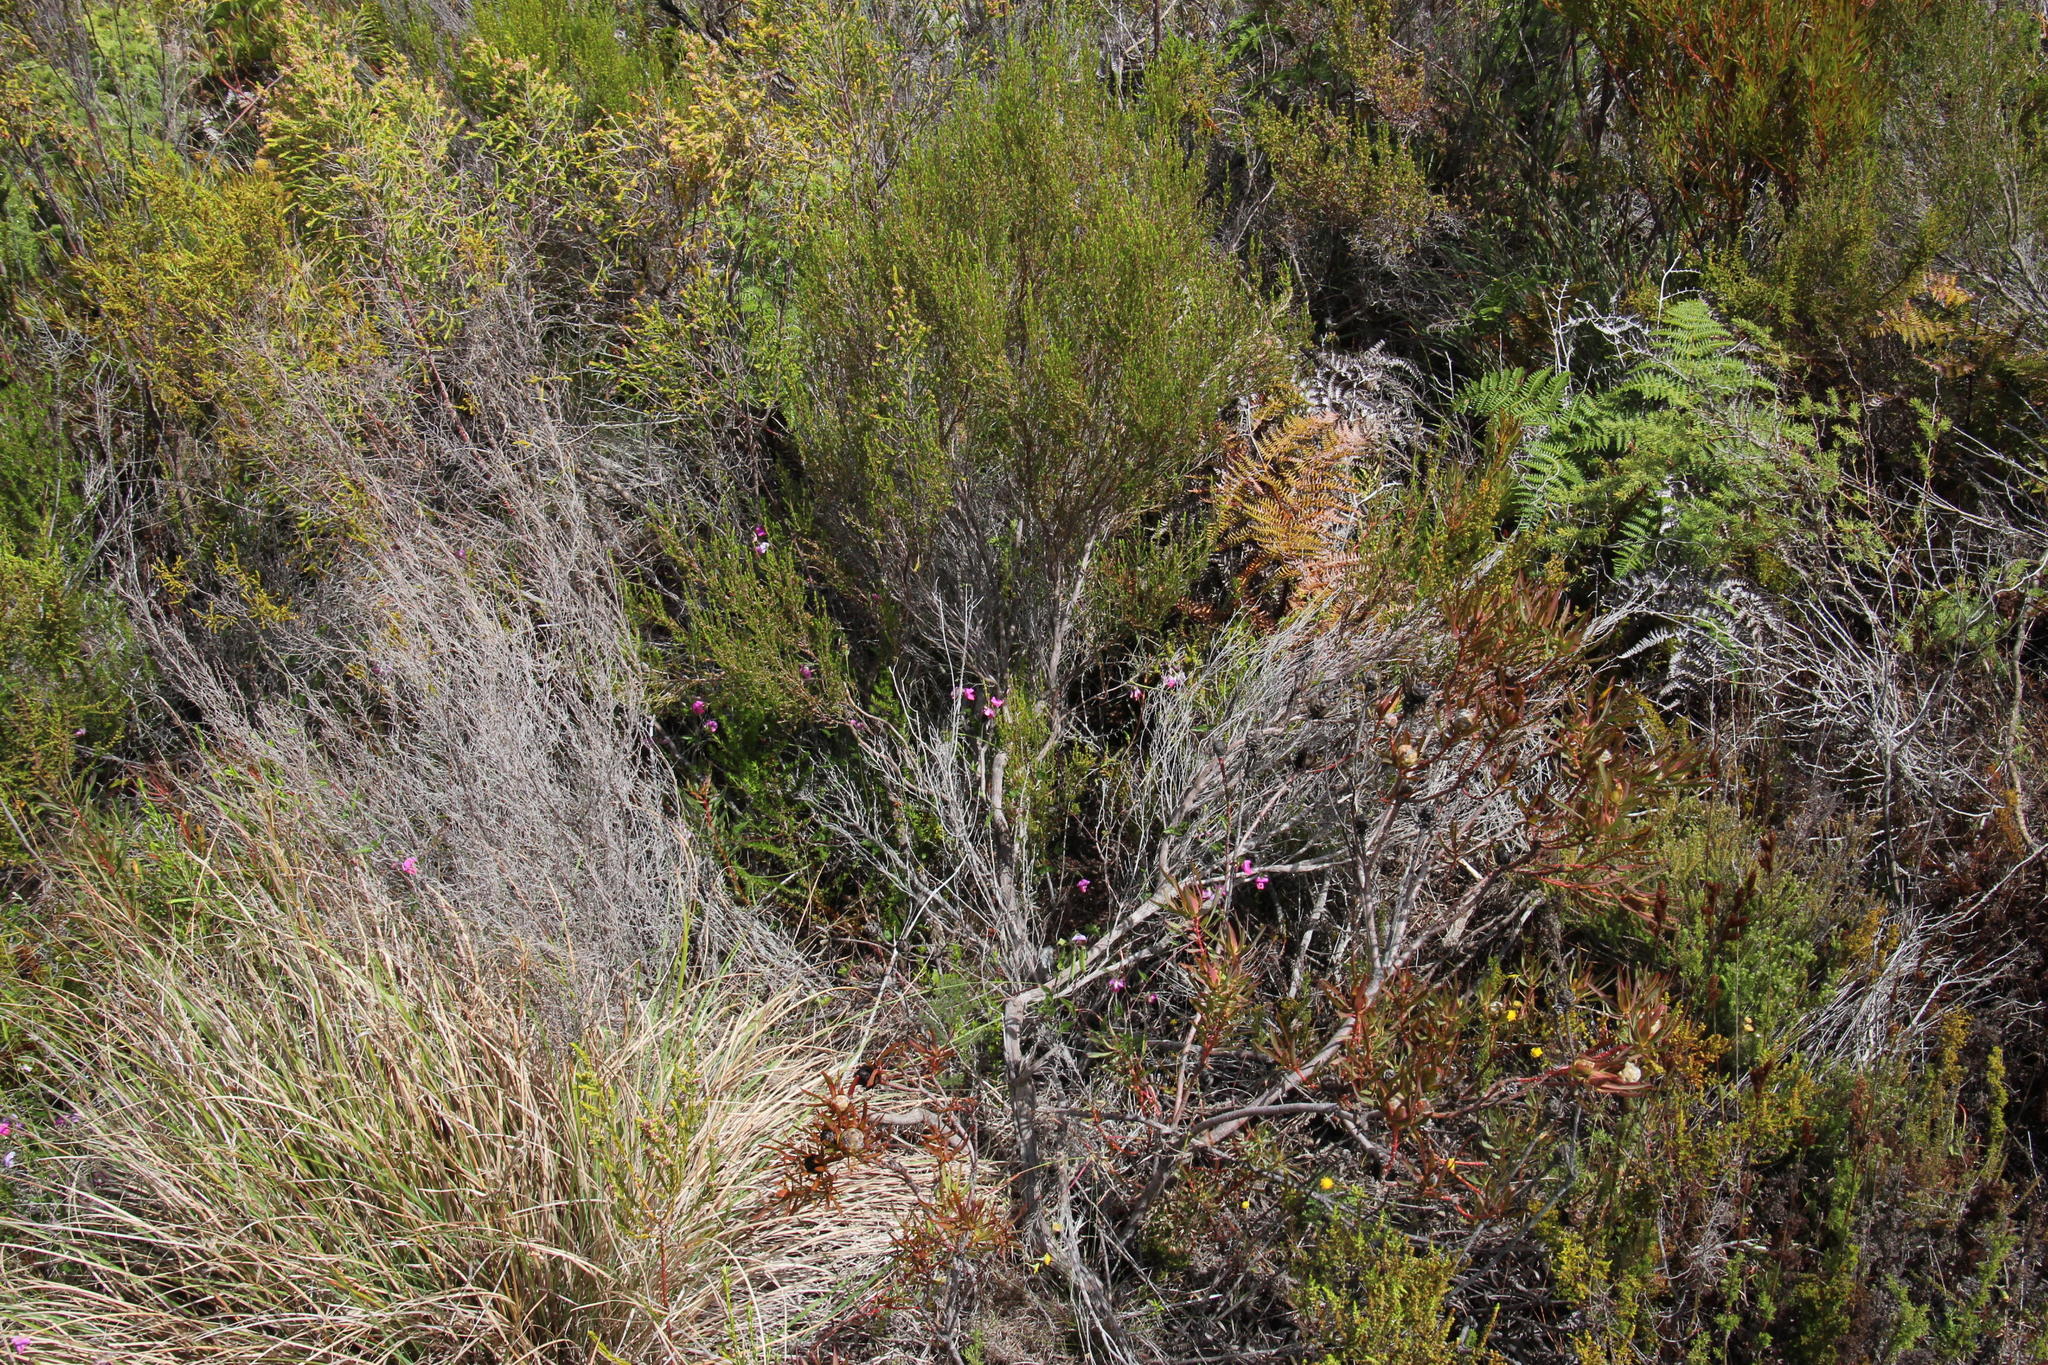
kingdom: Plantae
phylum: Tracheophyta
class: Magnoliopsida
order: Fabales
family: Fabaceae
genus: Dipogon
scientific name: Dipogon lignosus
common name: Okie bean
